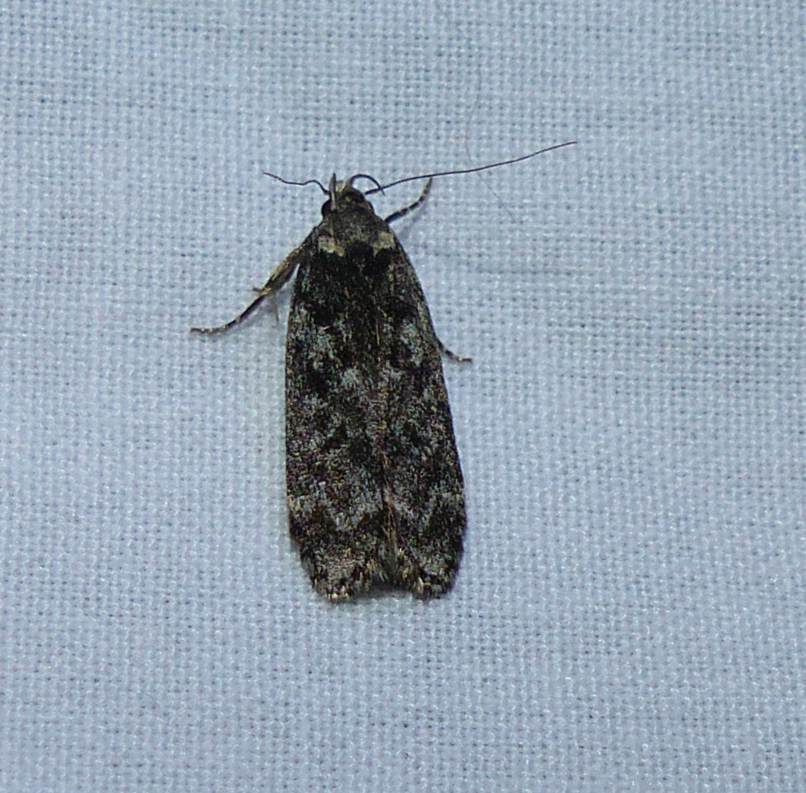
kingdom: Animalia
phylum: Arthropoda
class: Insecta
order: Lepidoptera
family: Gelechiidae
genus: Anacampsis
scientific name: Anacampsis niveopulvella
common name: Pale-headed aspen leafroller moth
